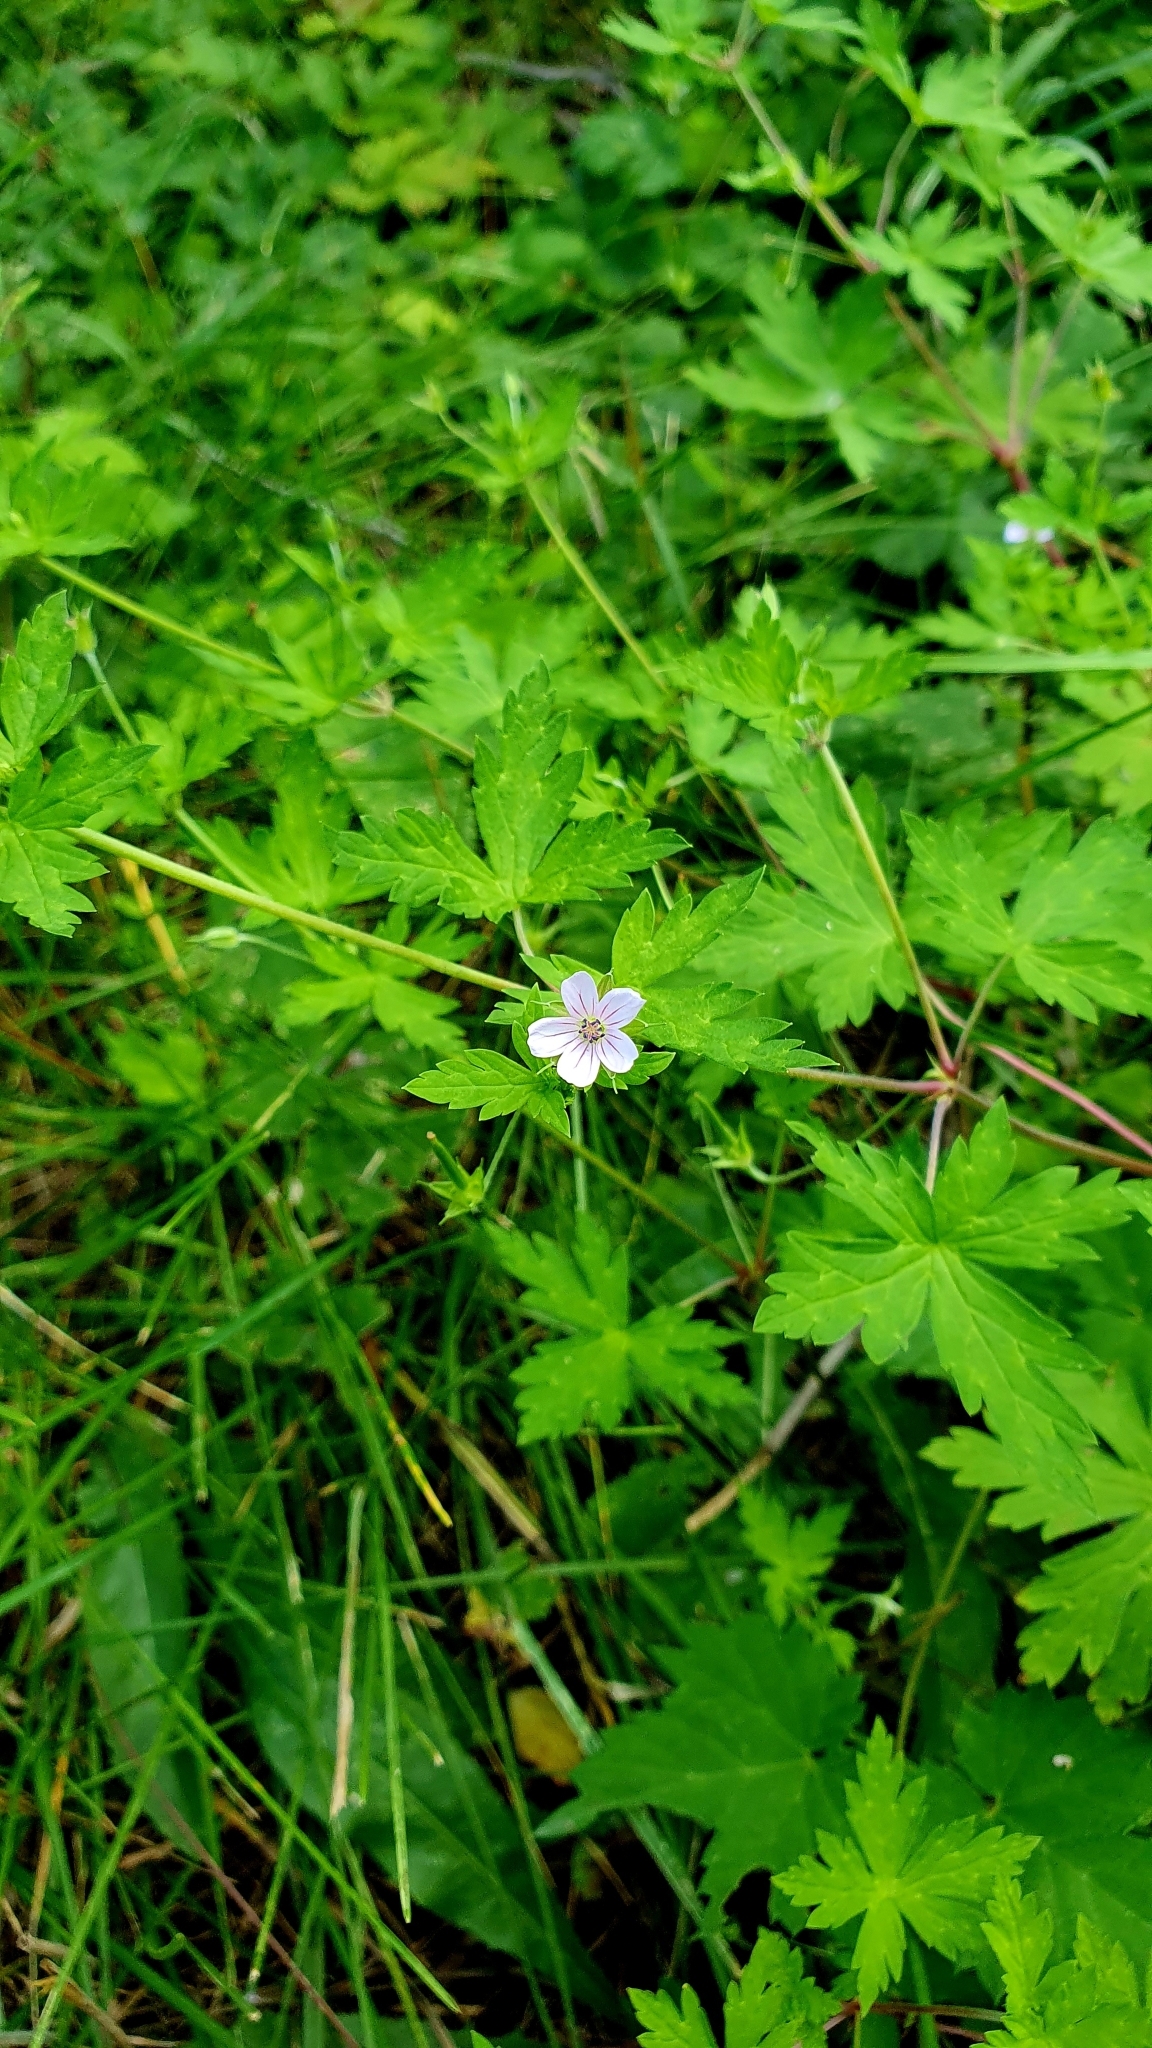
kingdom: Plantae
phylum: Tracheophyta
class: Magnoliopsida
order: Geraniales
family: Geraniaceae
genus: Geranium
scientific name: Geranium sibiricum
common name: Siberian crane's-bill
